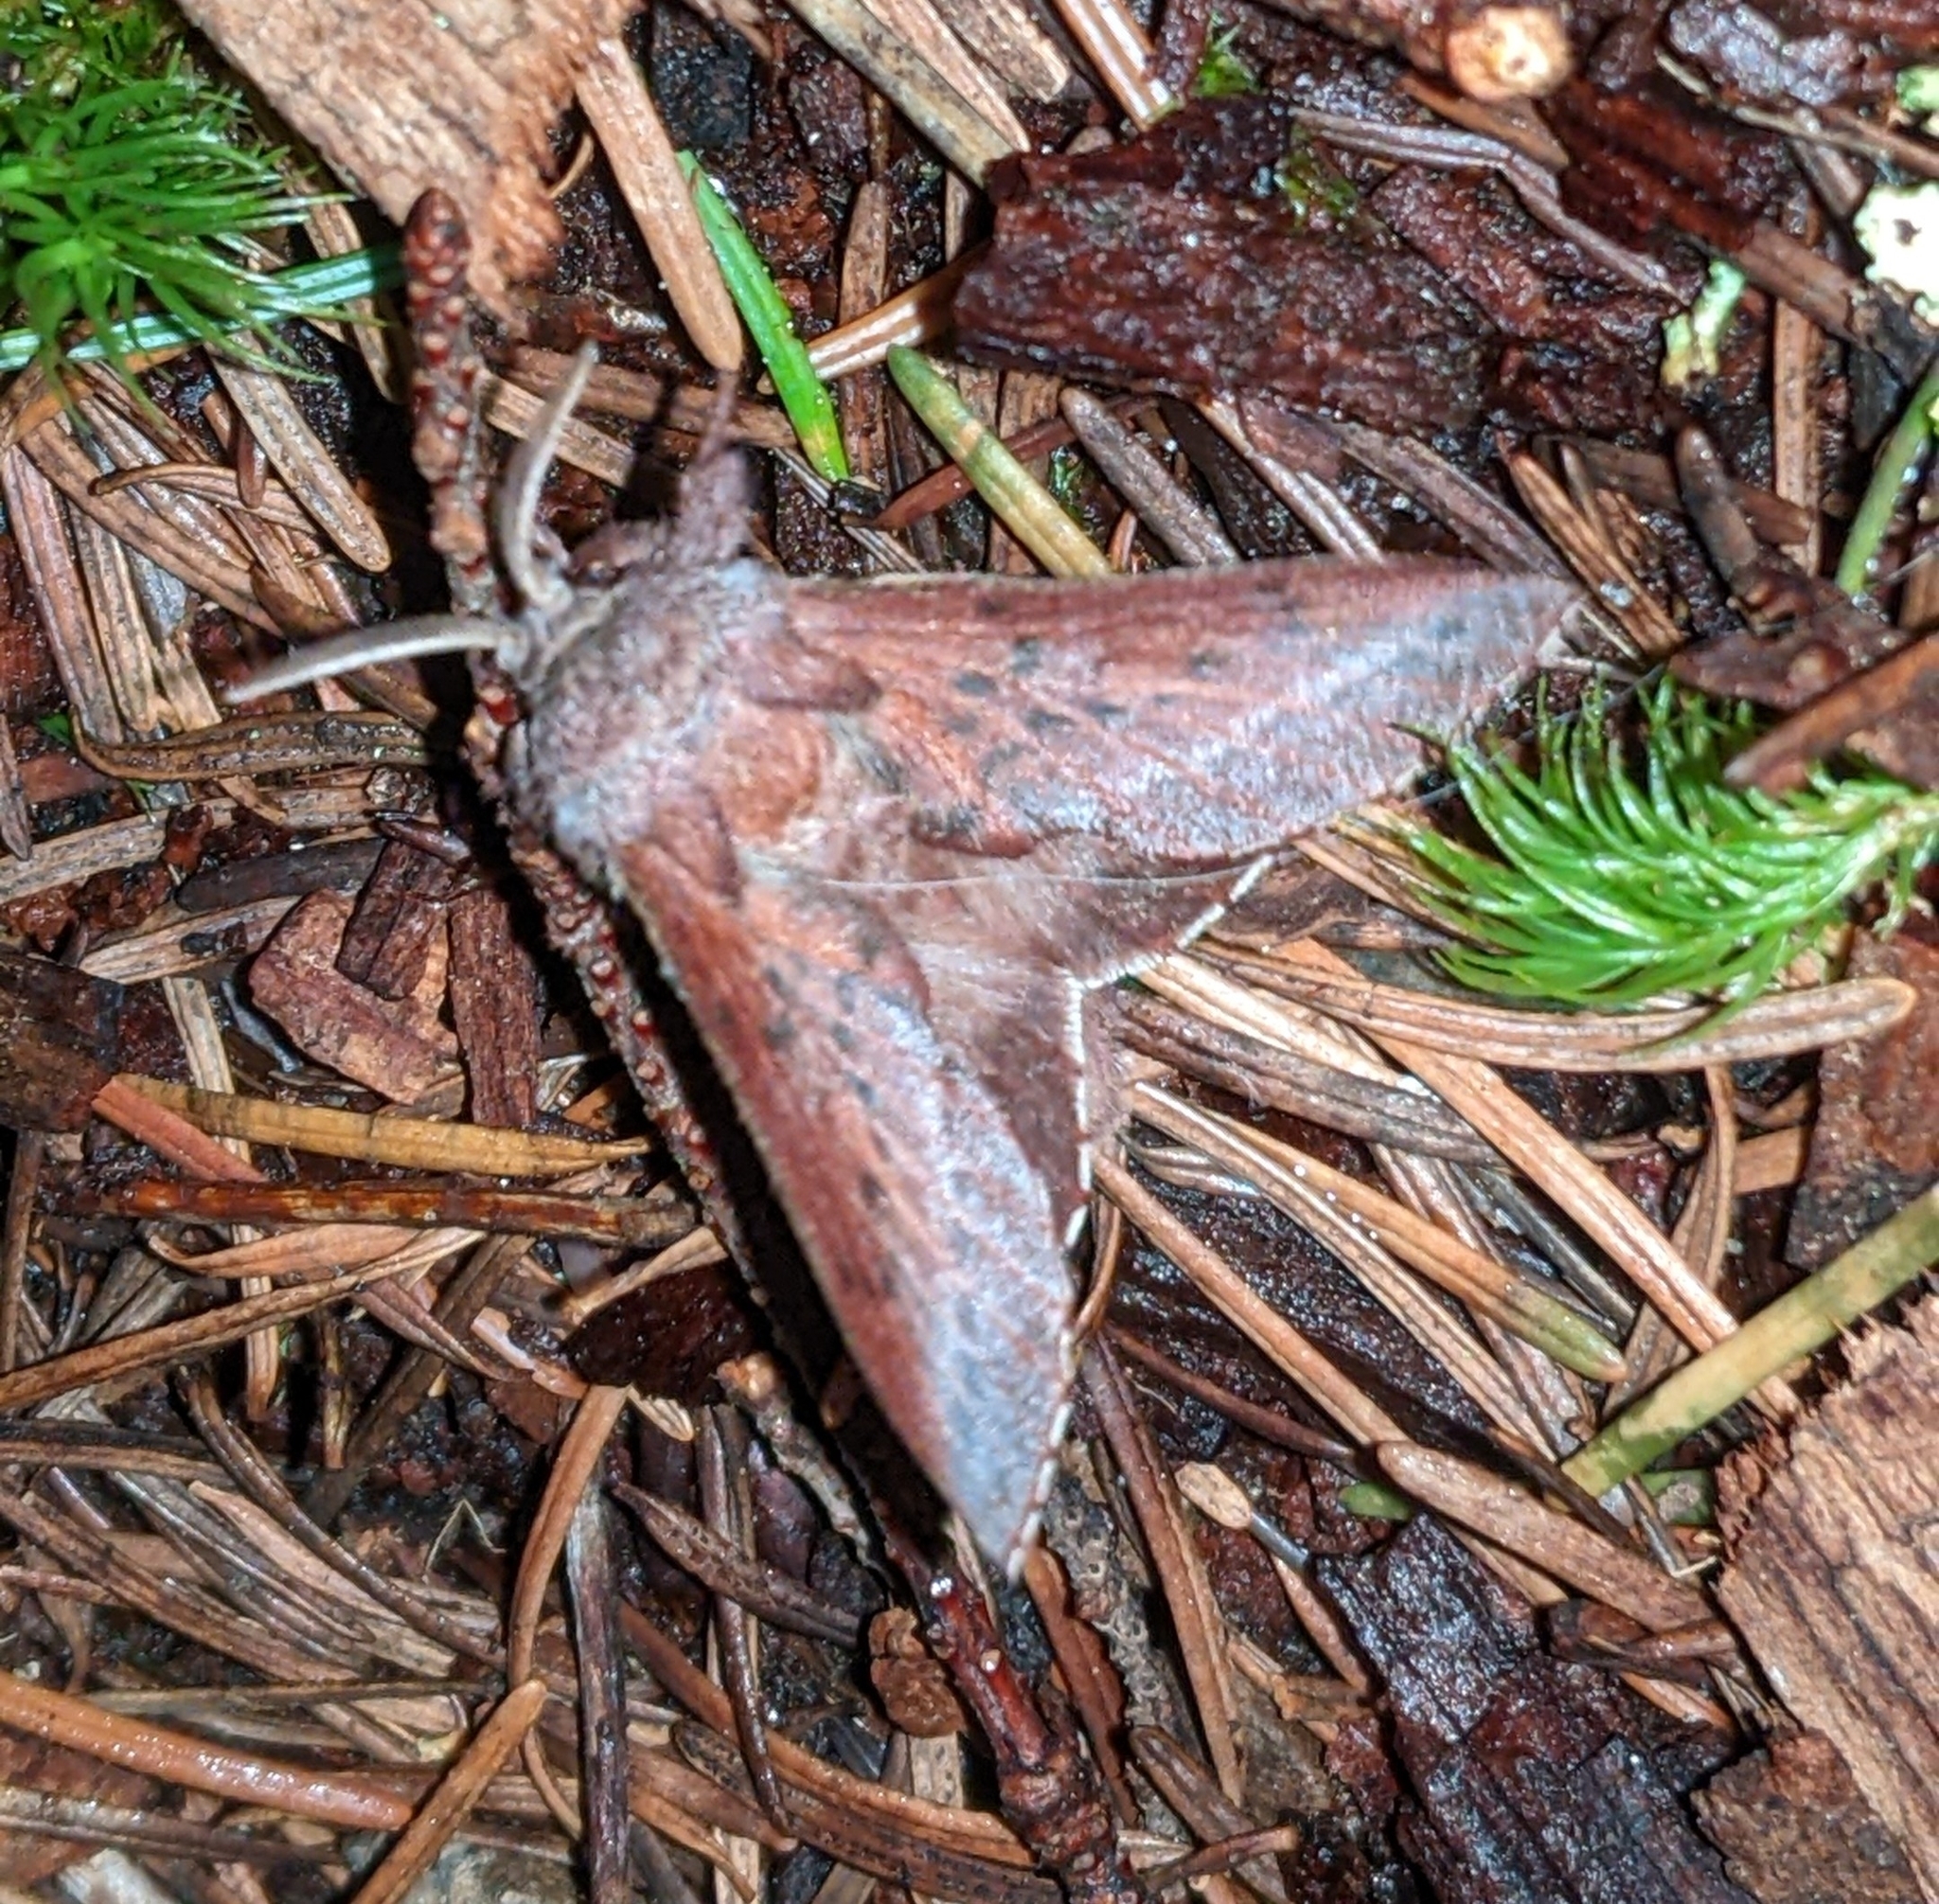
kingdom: Animalia
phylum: Arthropoda
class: Insecta
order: Lepidoptera
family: Lasiocampidae
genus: Phyllodesma
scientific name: Phyllodesma americana
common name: American lappet moth
